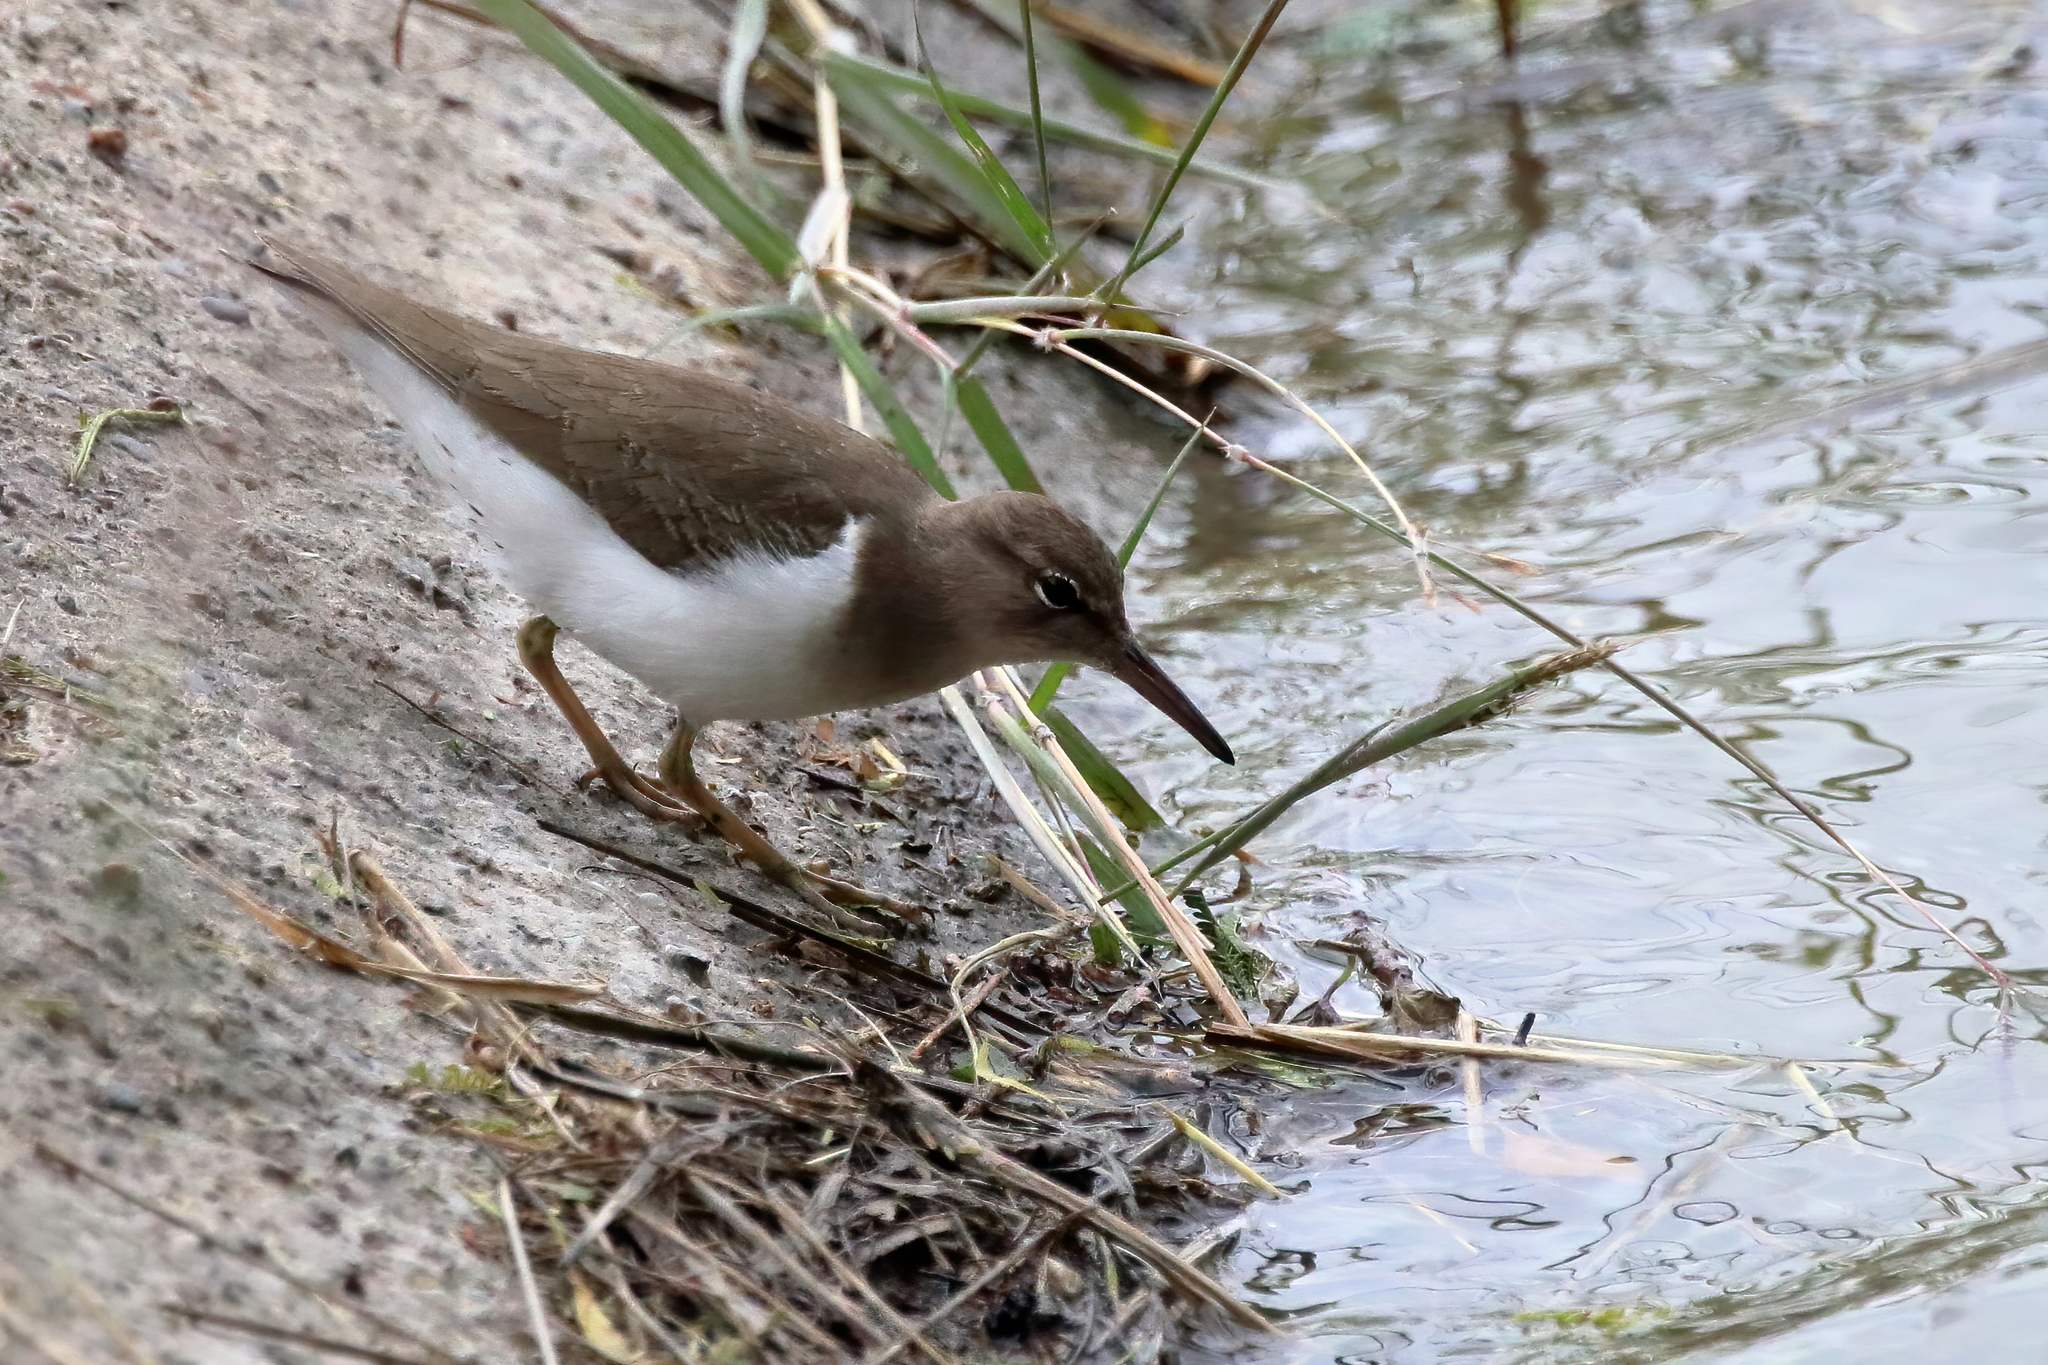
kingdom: Animalia
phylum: Chordata
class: Aves
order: Charadriiformes
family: Scolopacidae
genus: Actitis
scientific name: Actitis macularius
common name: Spotted sandpiper
